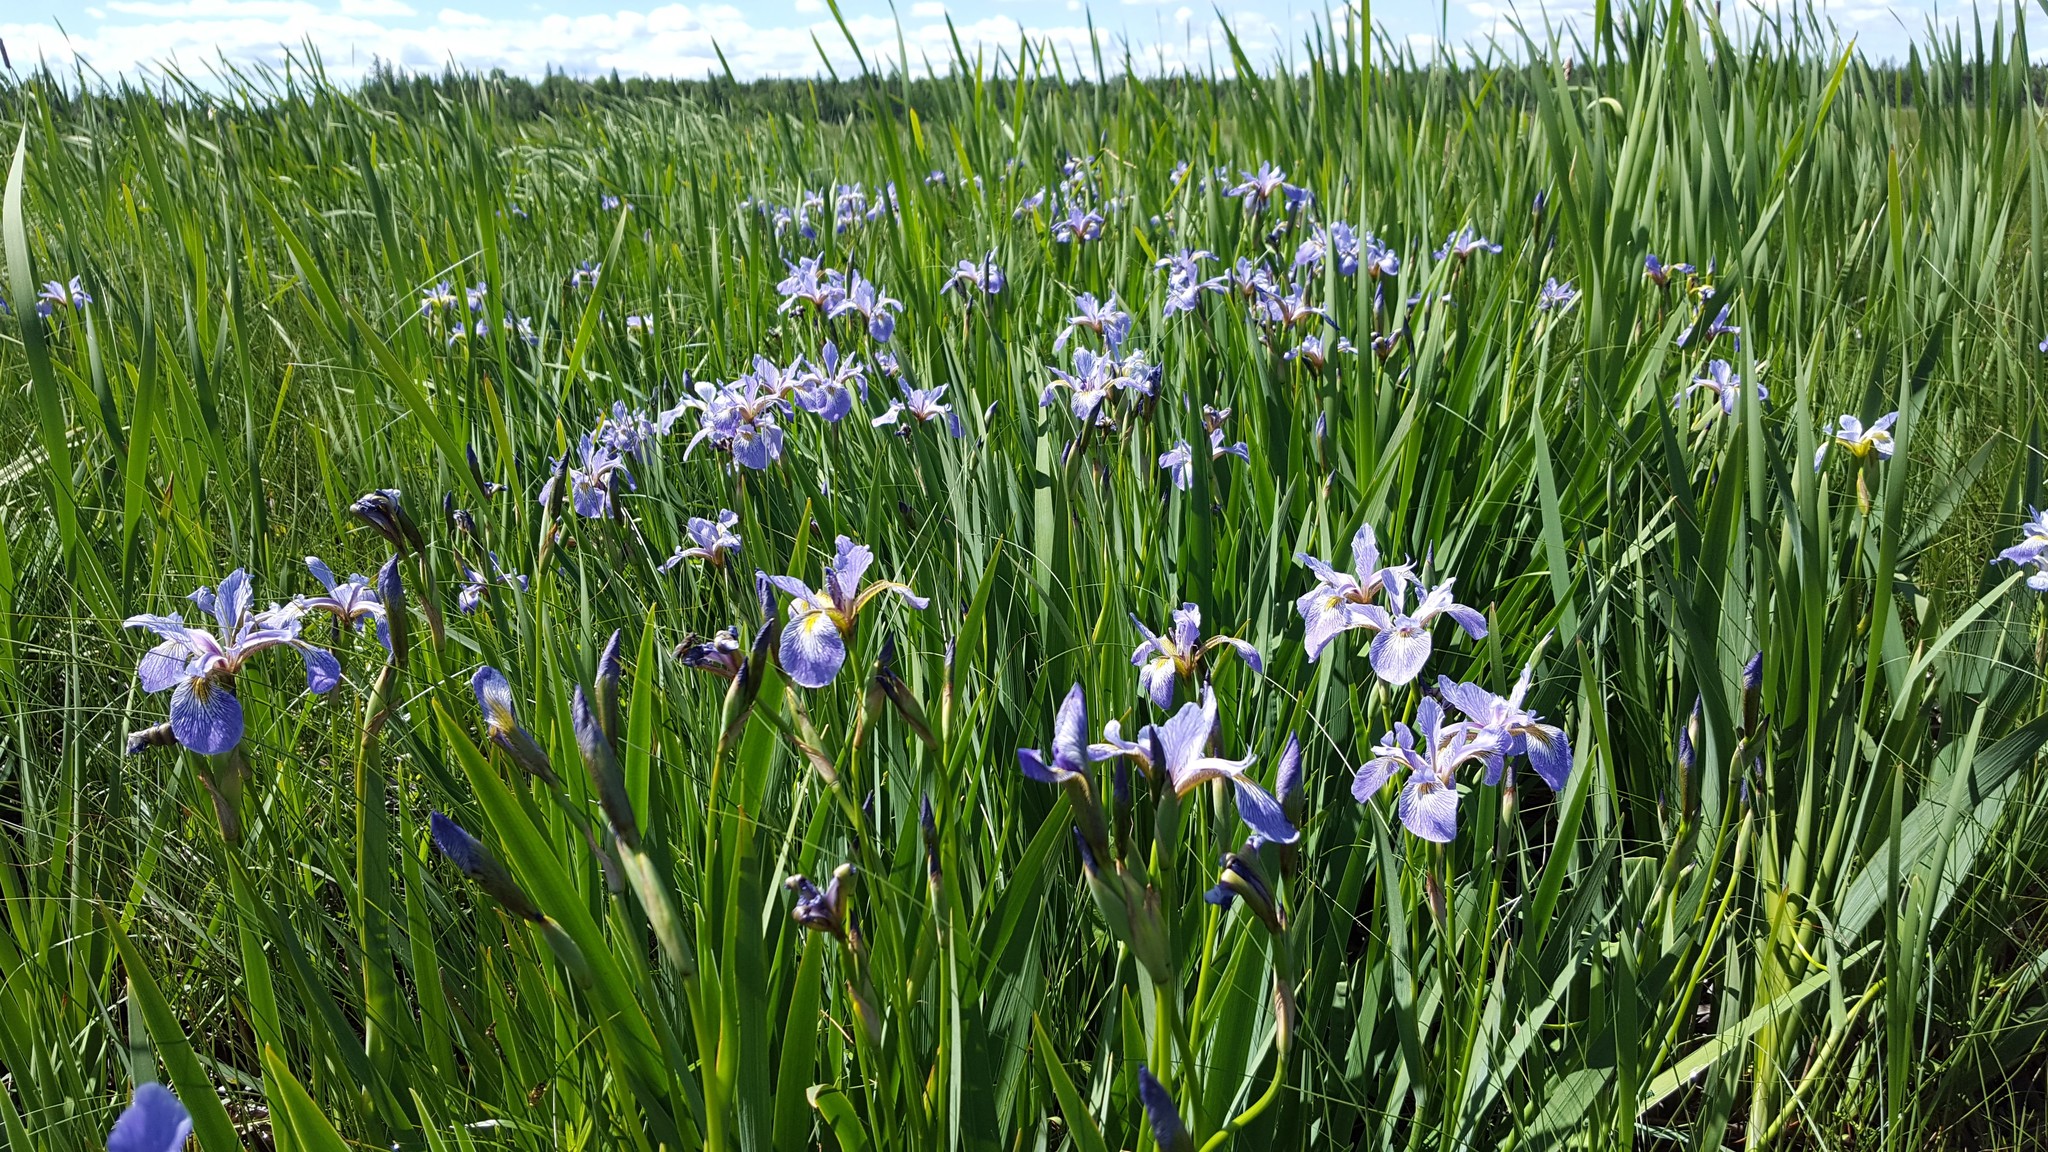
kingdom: Plantae
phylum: Tracheophyta
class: Liliopsida
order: Asparagales
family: Iridaceae
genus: Iris
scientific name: Iris versicolor
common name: Purple iris
